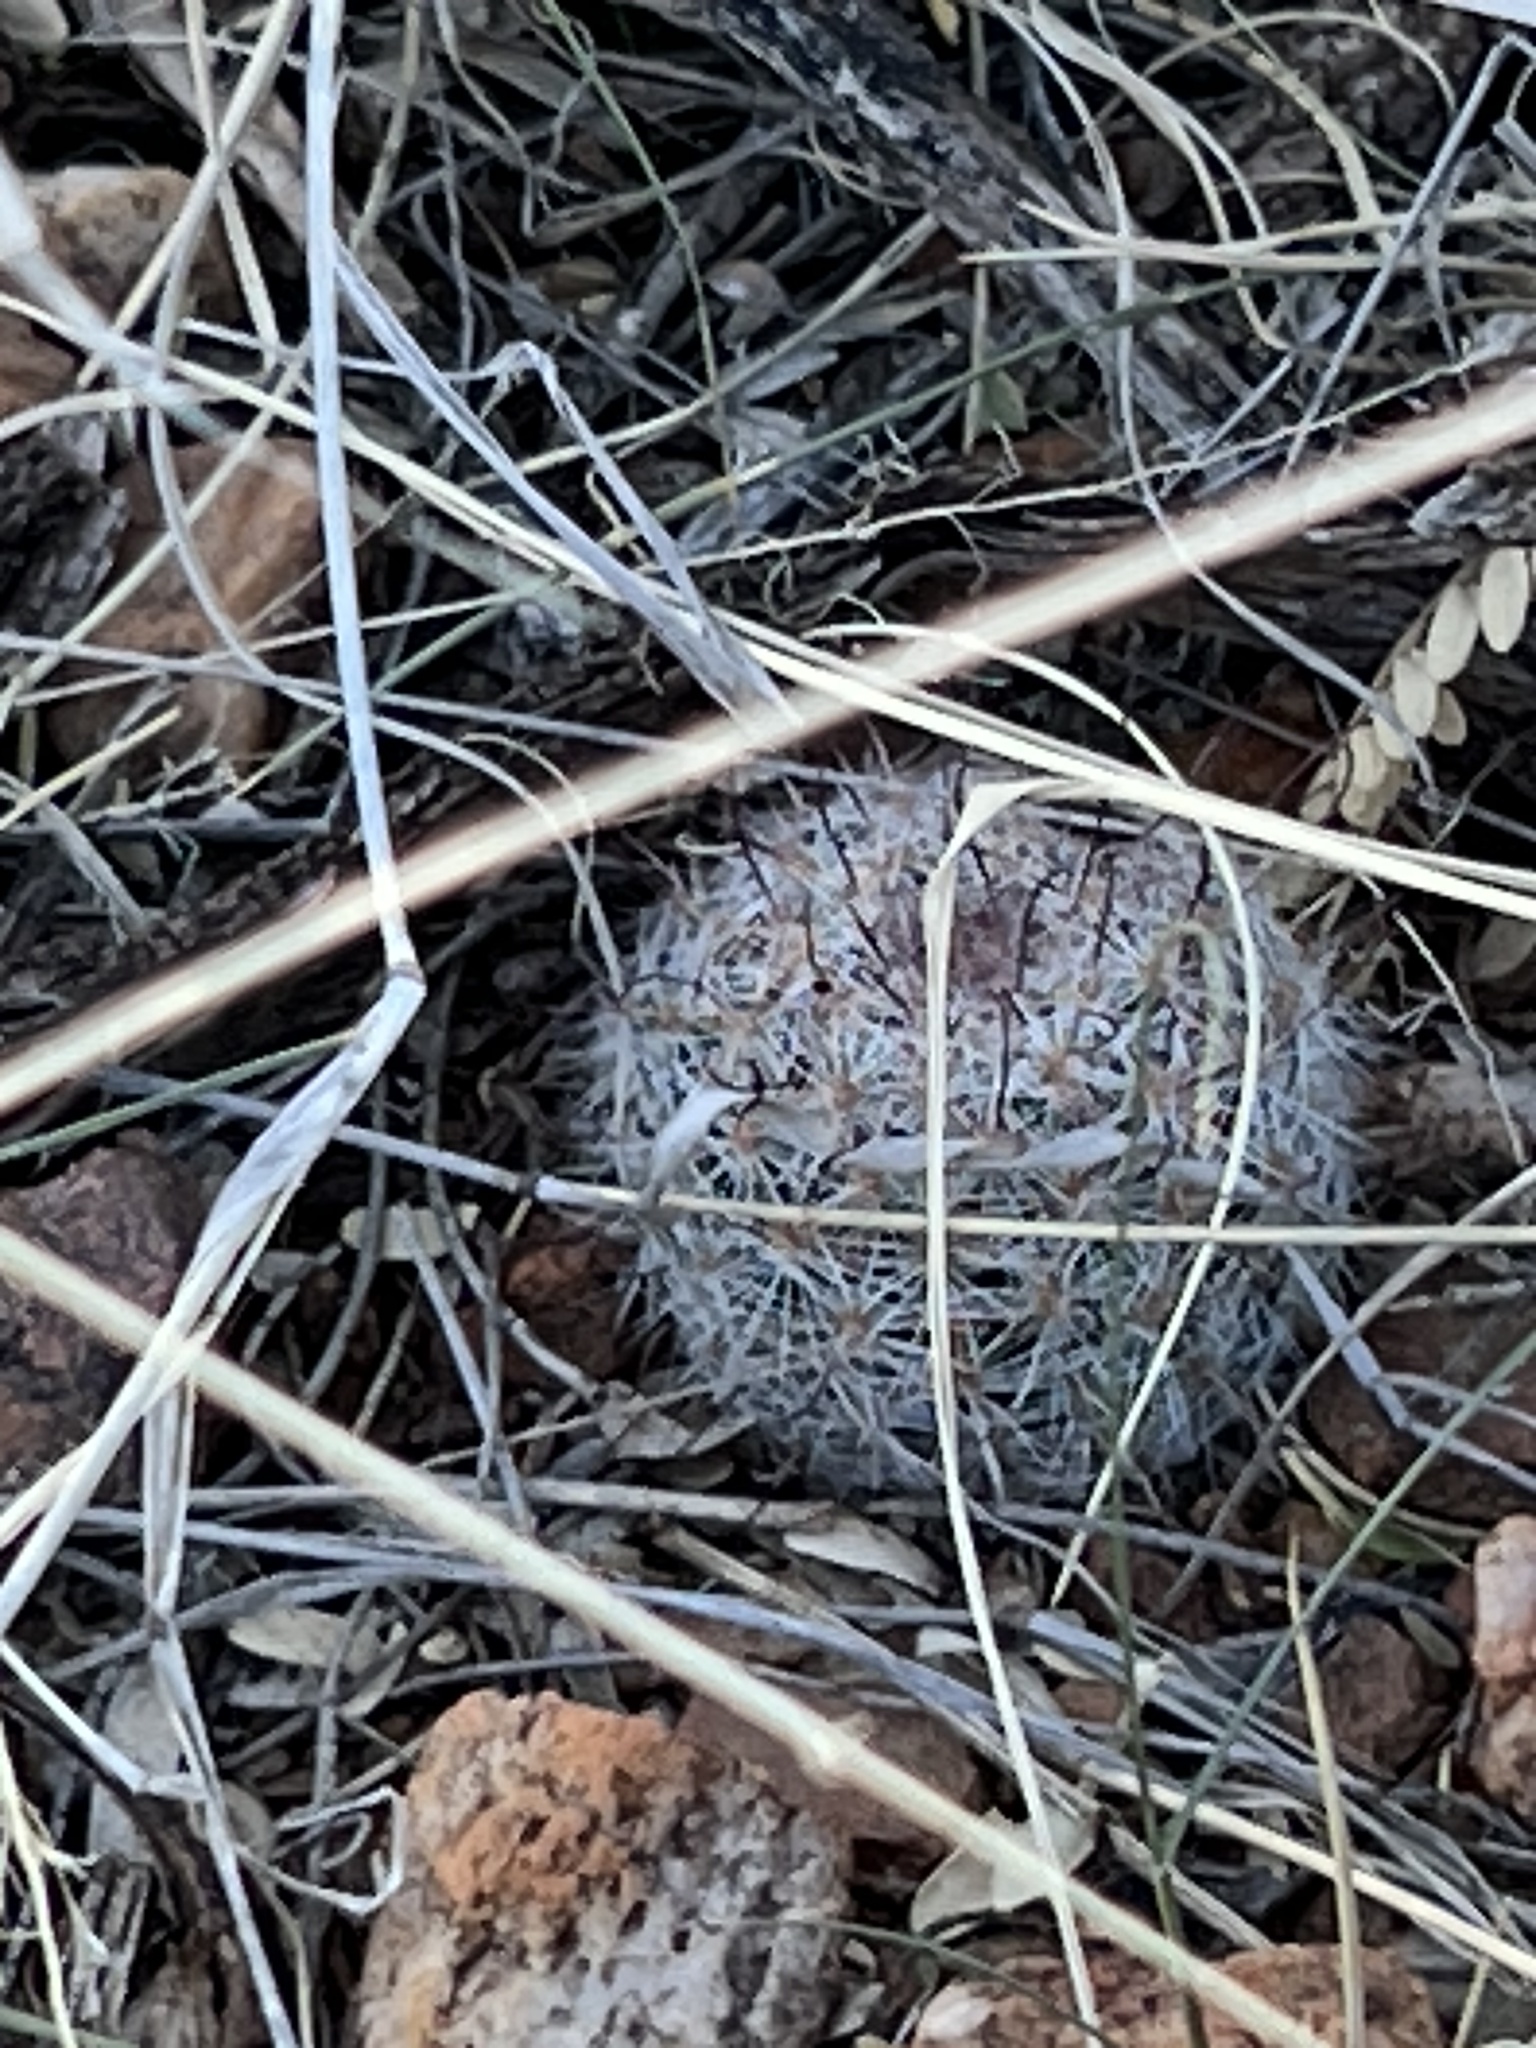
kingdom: Plantae
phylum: Tracheophyta
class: Magnoliopsida
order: Caryophyllales
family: Cactaceae
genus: Cochemiea
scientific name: Cochemiea grahamii
